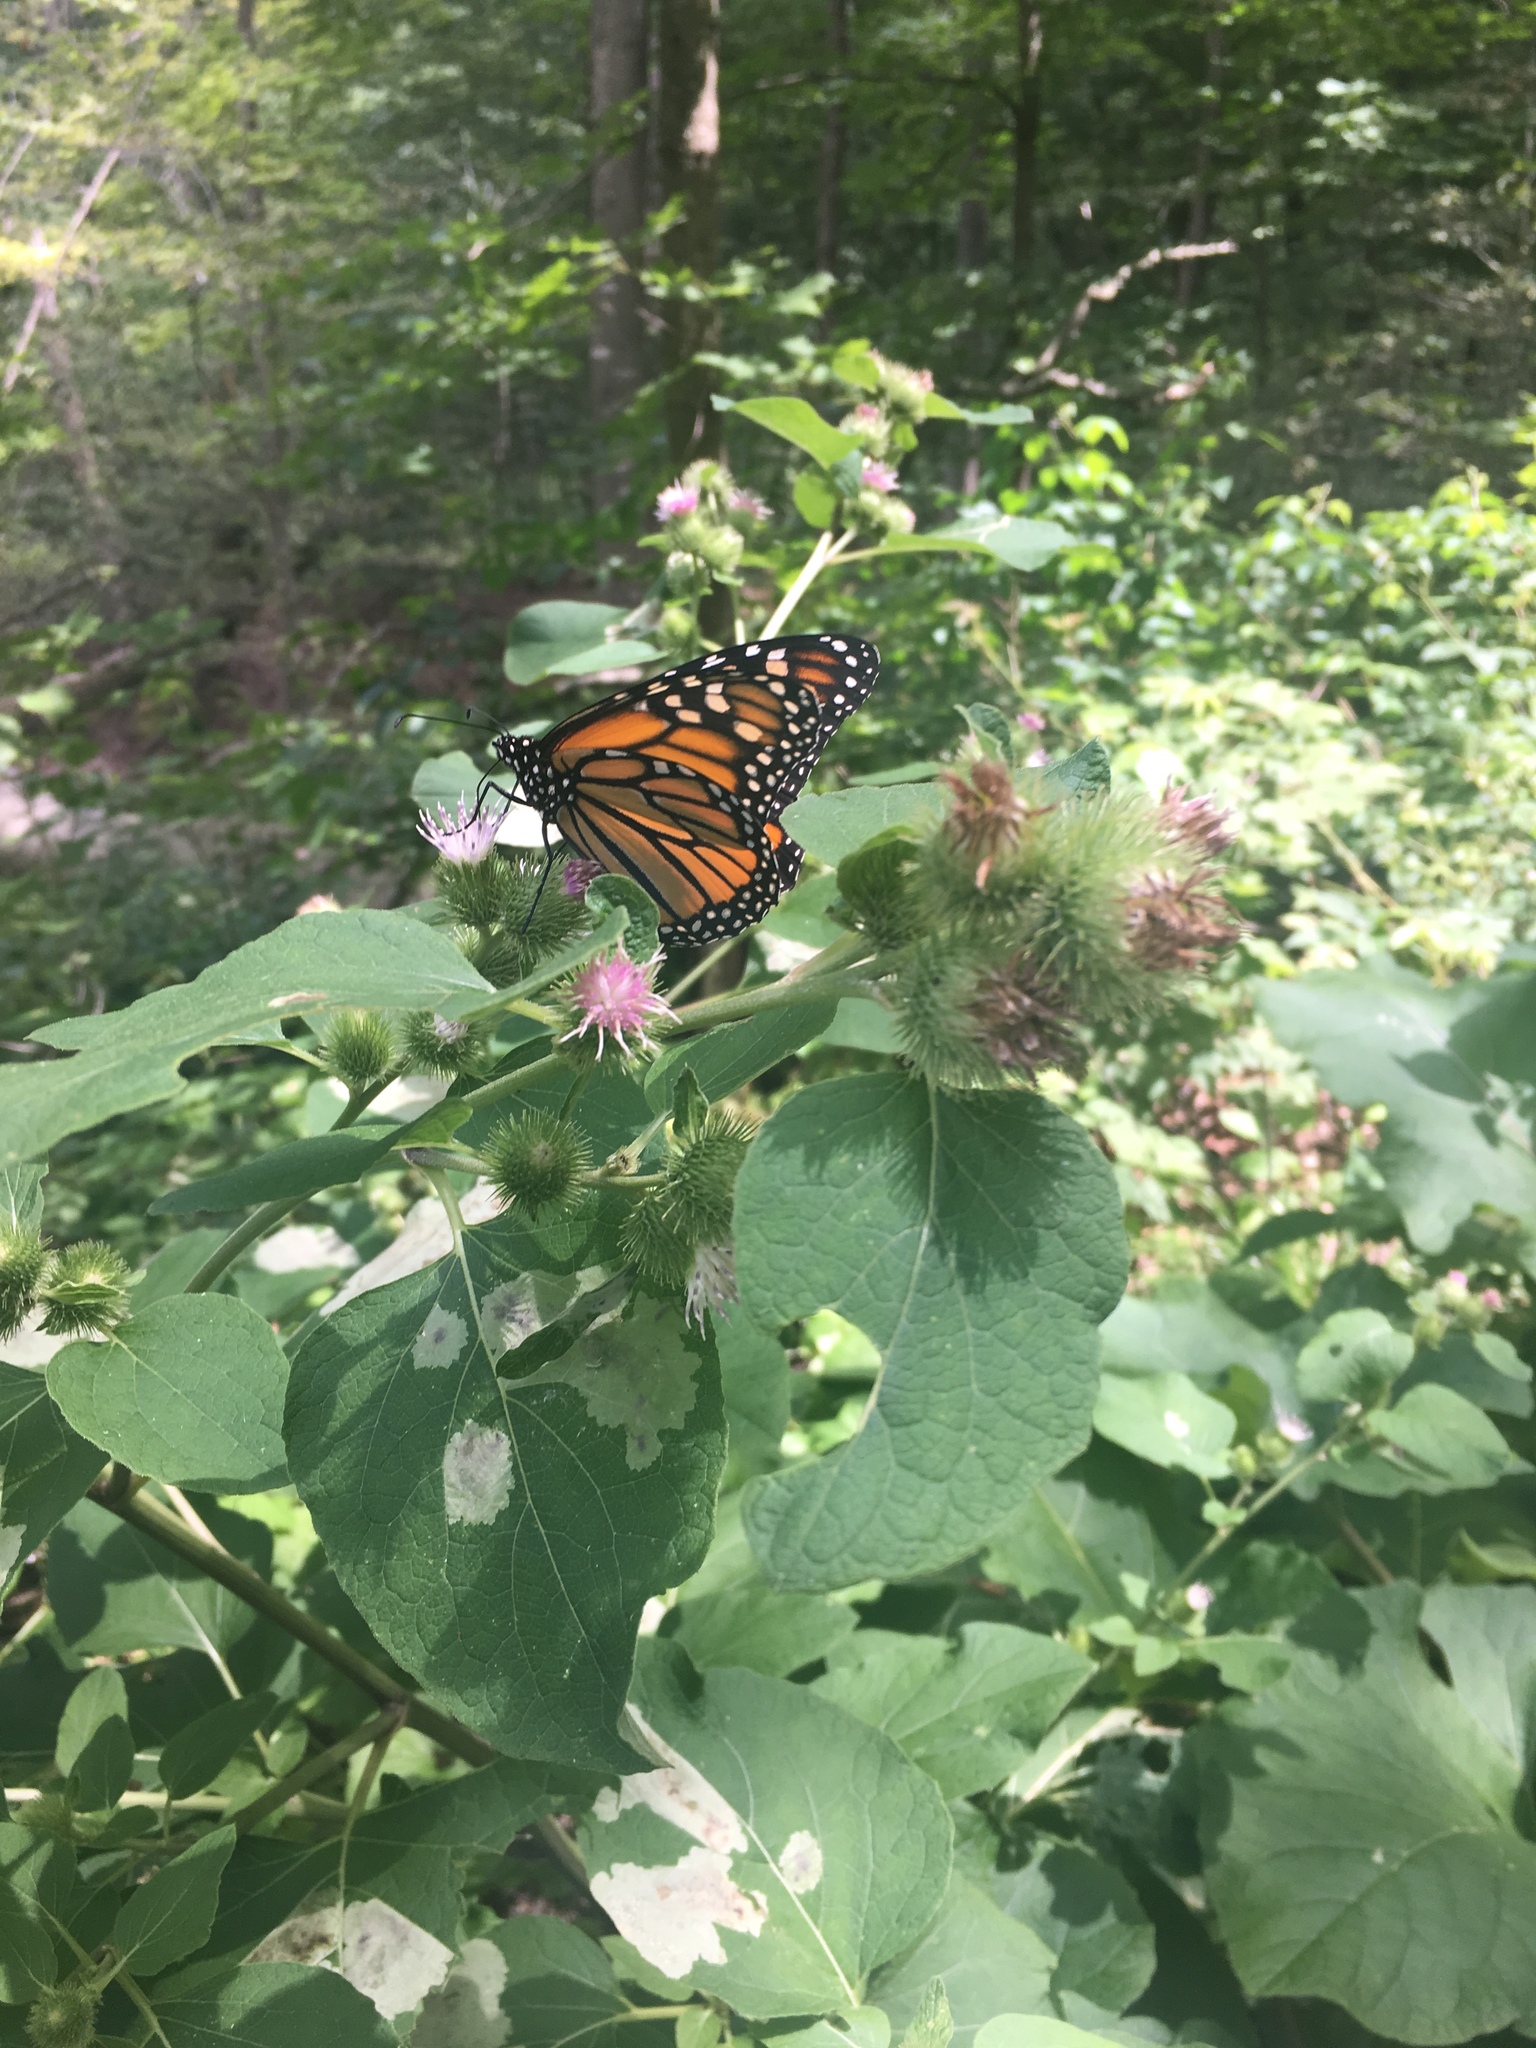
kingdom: Animalia
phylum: Arthropoda
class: Insecta
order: Lepidoptera
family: Nymphalidae
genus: Danaus
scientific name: Danaus plexippus
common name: Monarch
